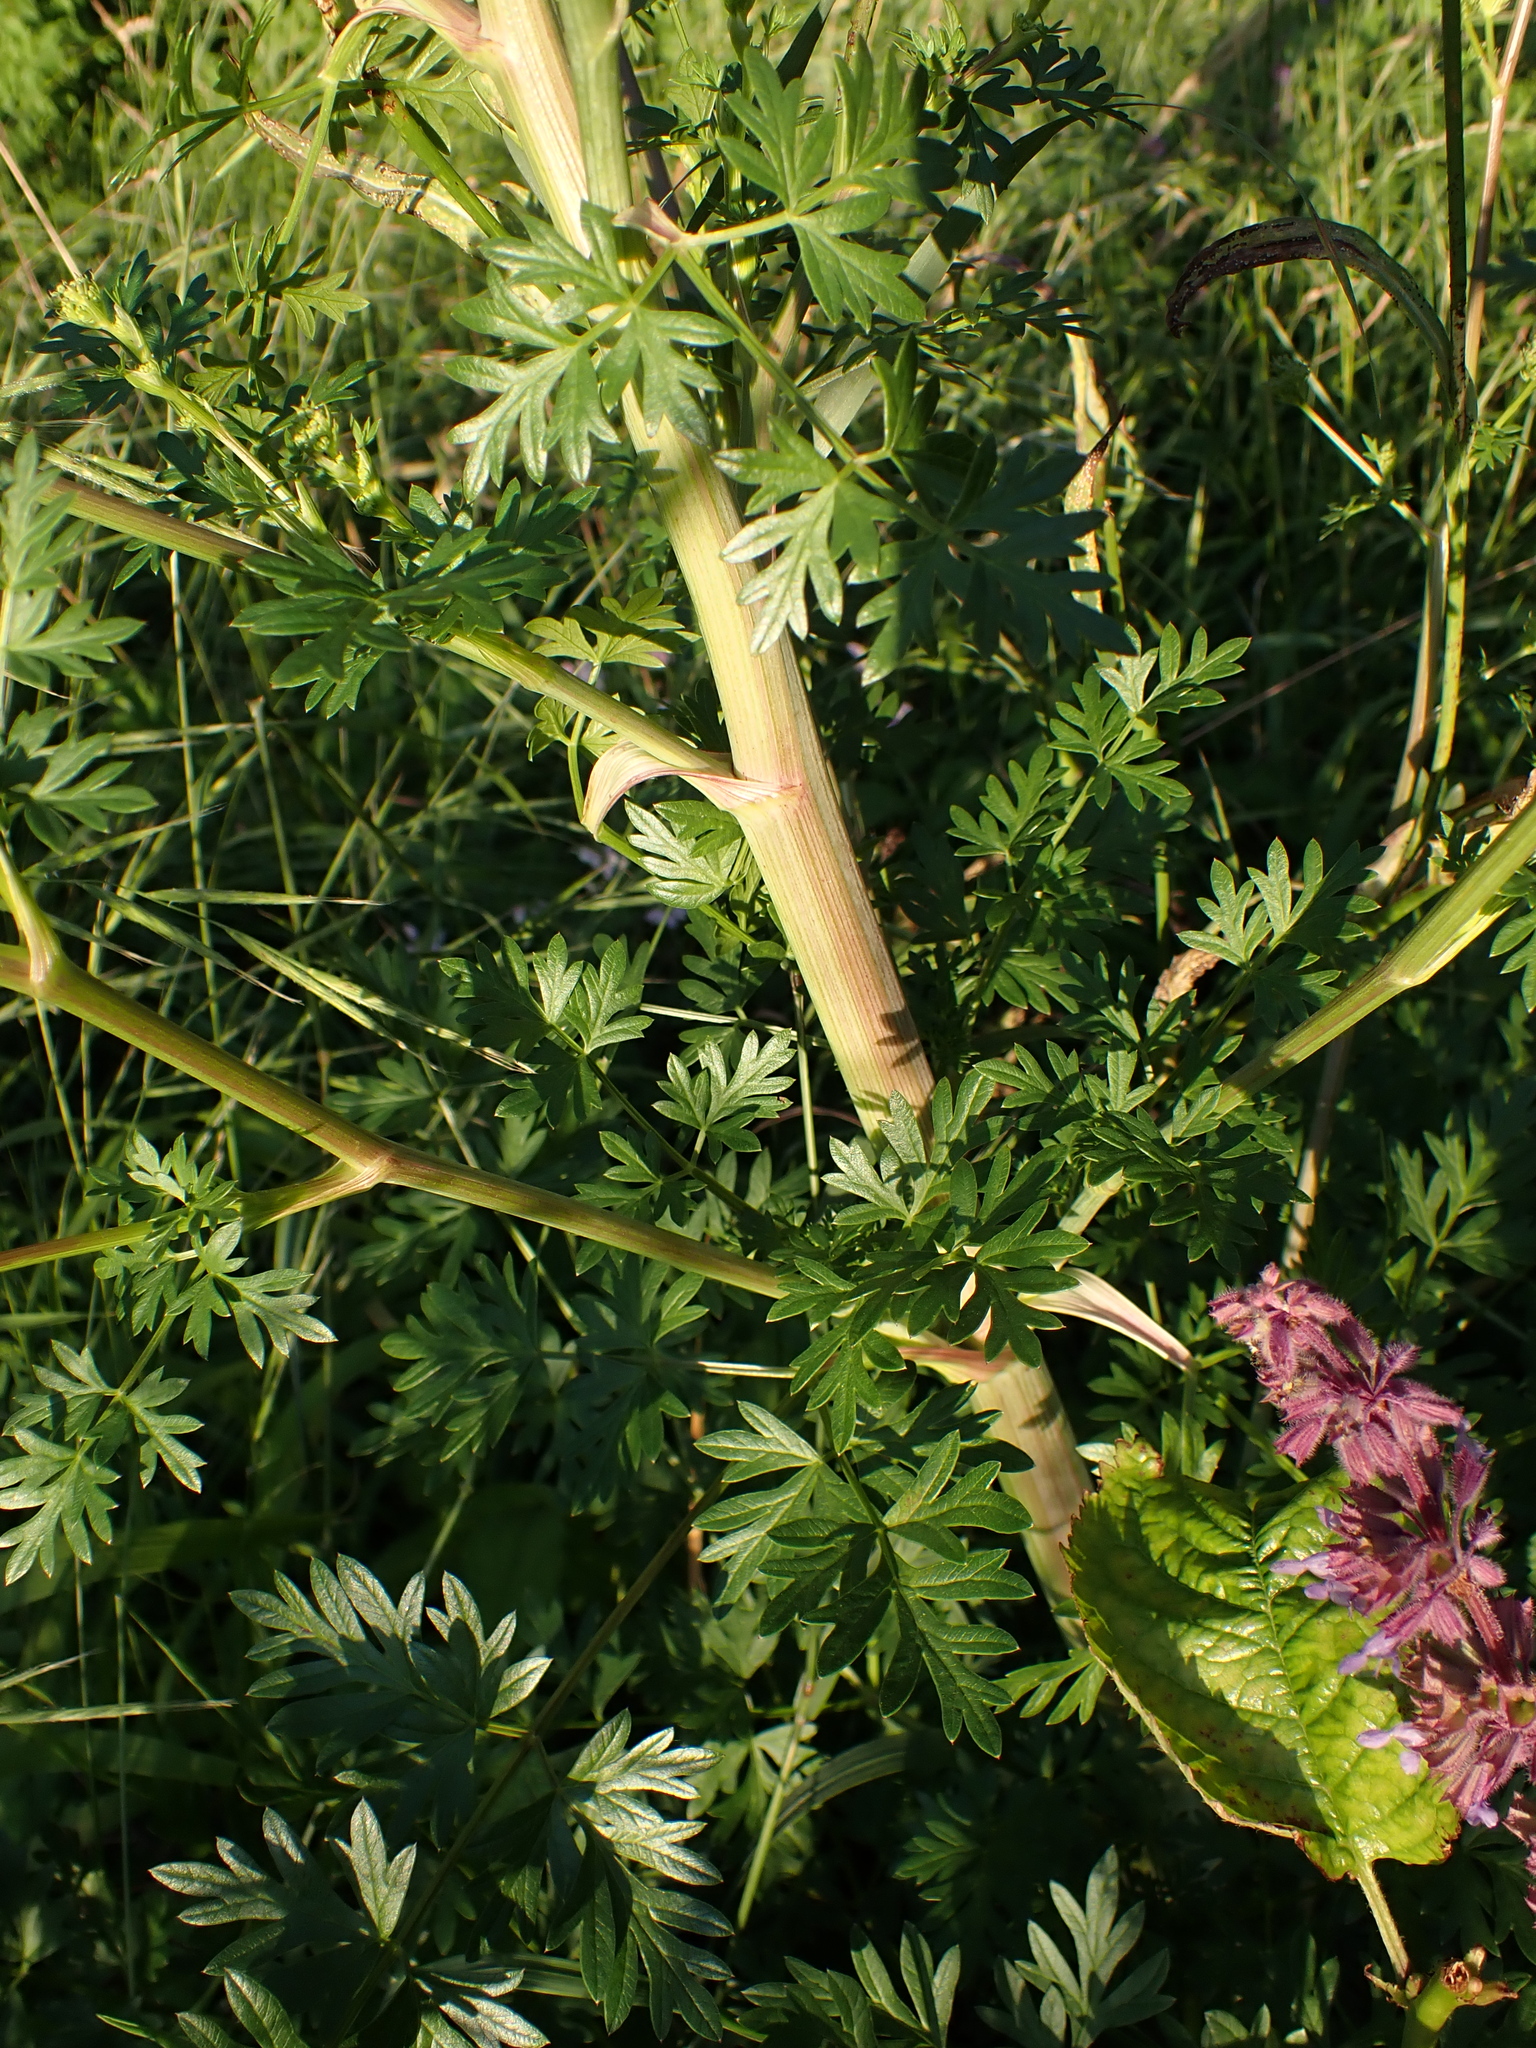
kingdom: Plantae
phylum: Tracheophyta
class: Magnoliopsida
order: Apiales
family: Apiaceae
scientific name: Apiaceae
